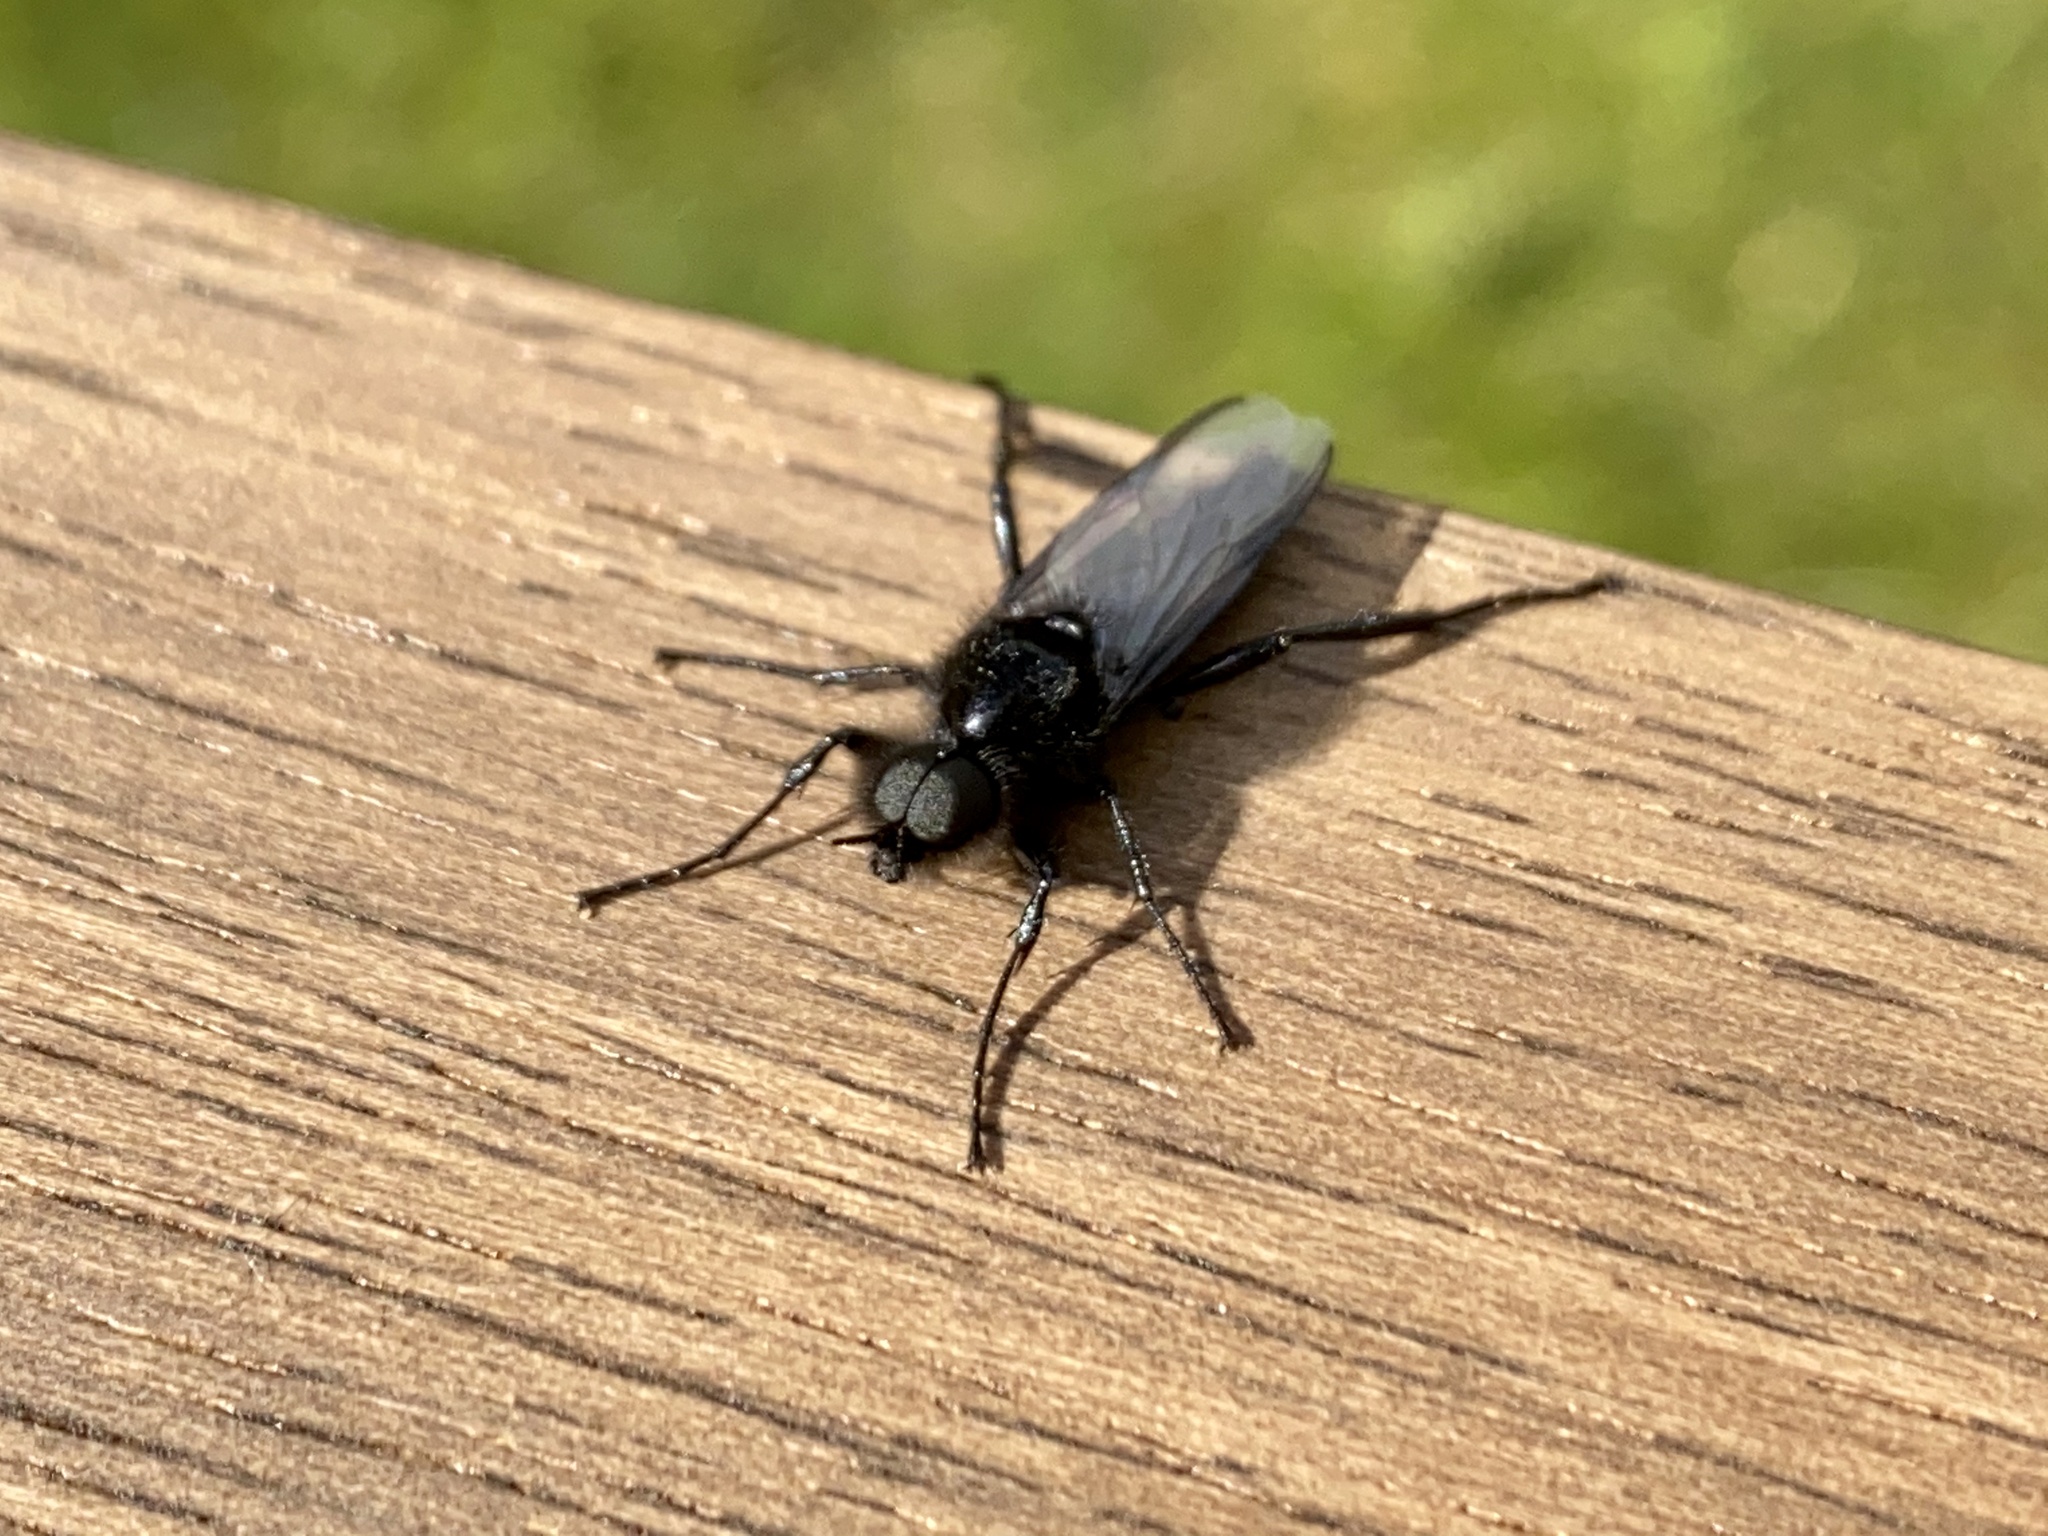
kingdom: Animalia
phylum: Arthropoda
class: Insecta
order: Diptera
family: Bibionidae
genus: Bibio
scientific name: Bibio marci
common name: St marks fly
